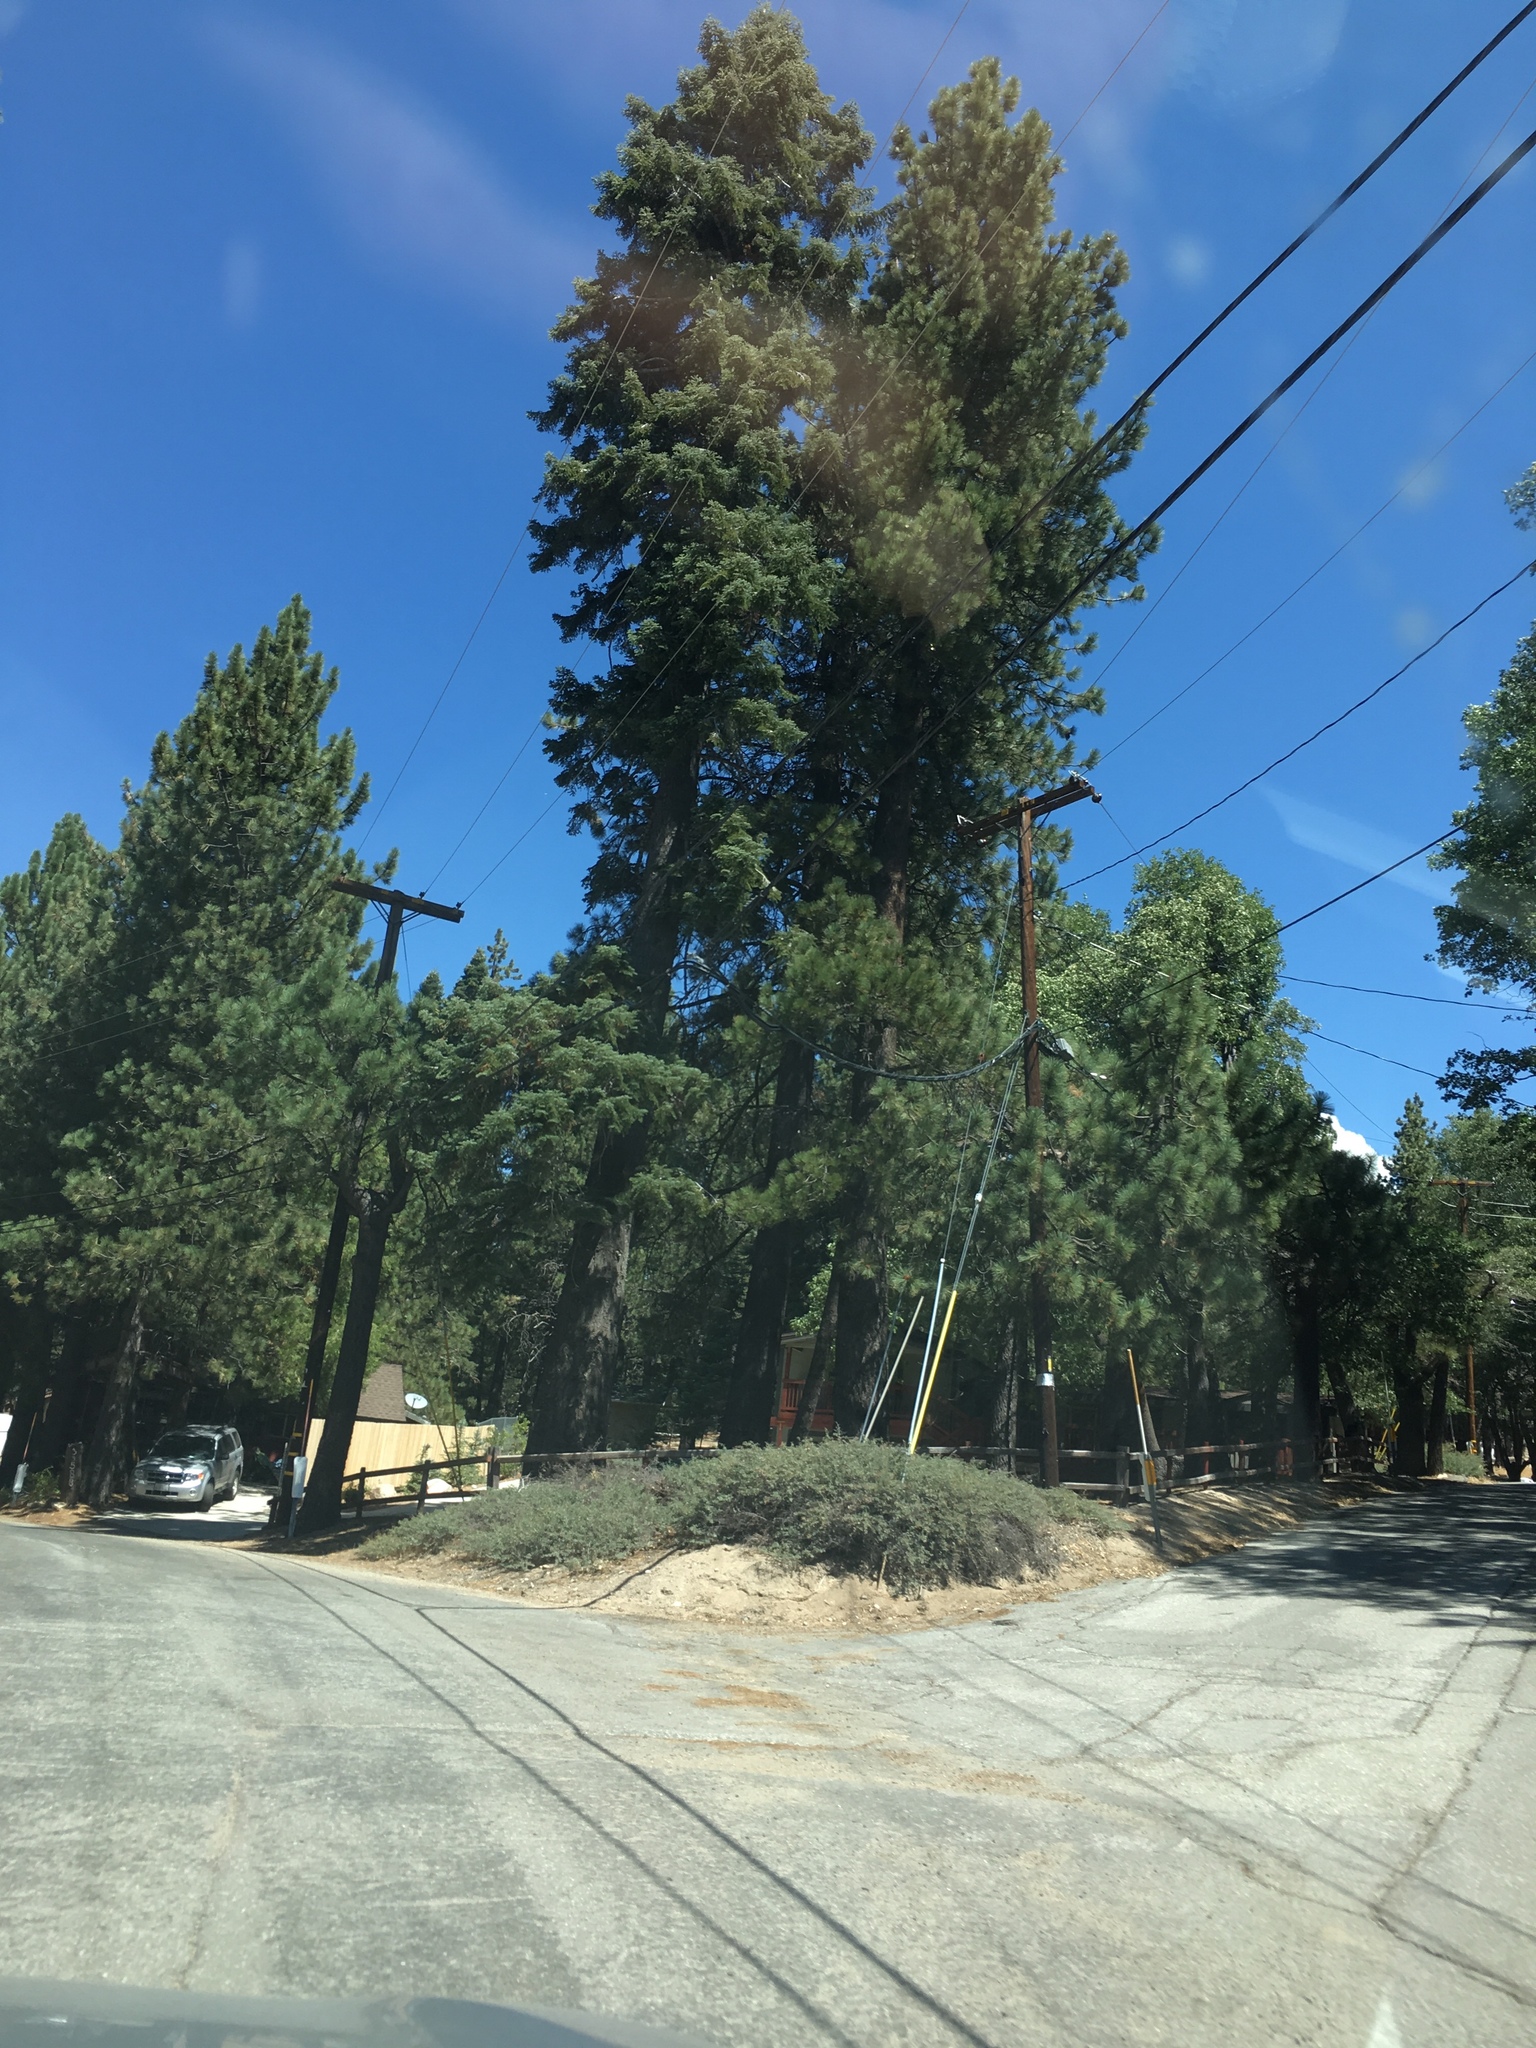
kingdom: Plantae
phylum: Tracheophyta
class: Magnoliopsida
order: Rosales
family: Rhamnaceae
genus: Ceanothus
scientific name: Ceanothus cordulatus
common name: Mountain whitethorn
